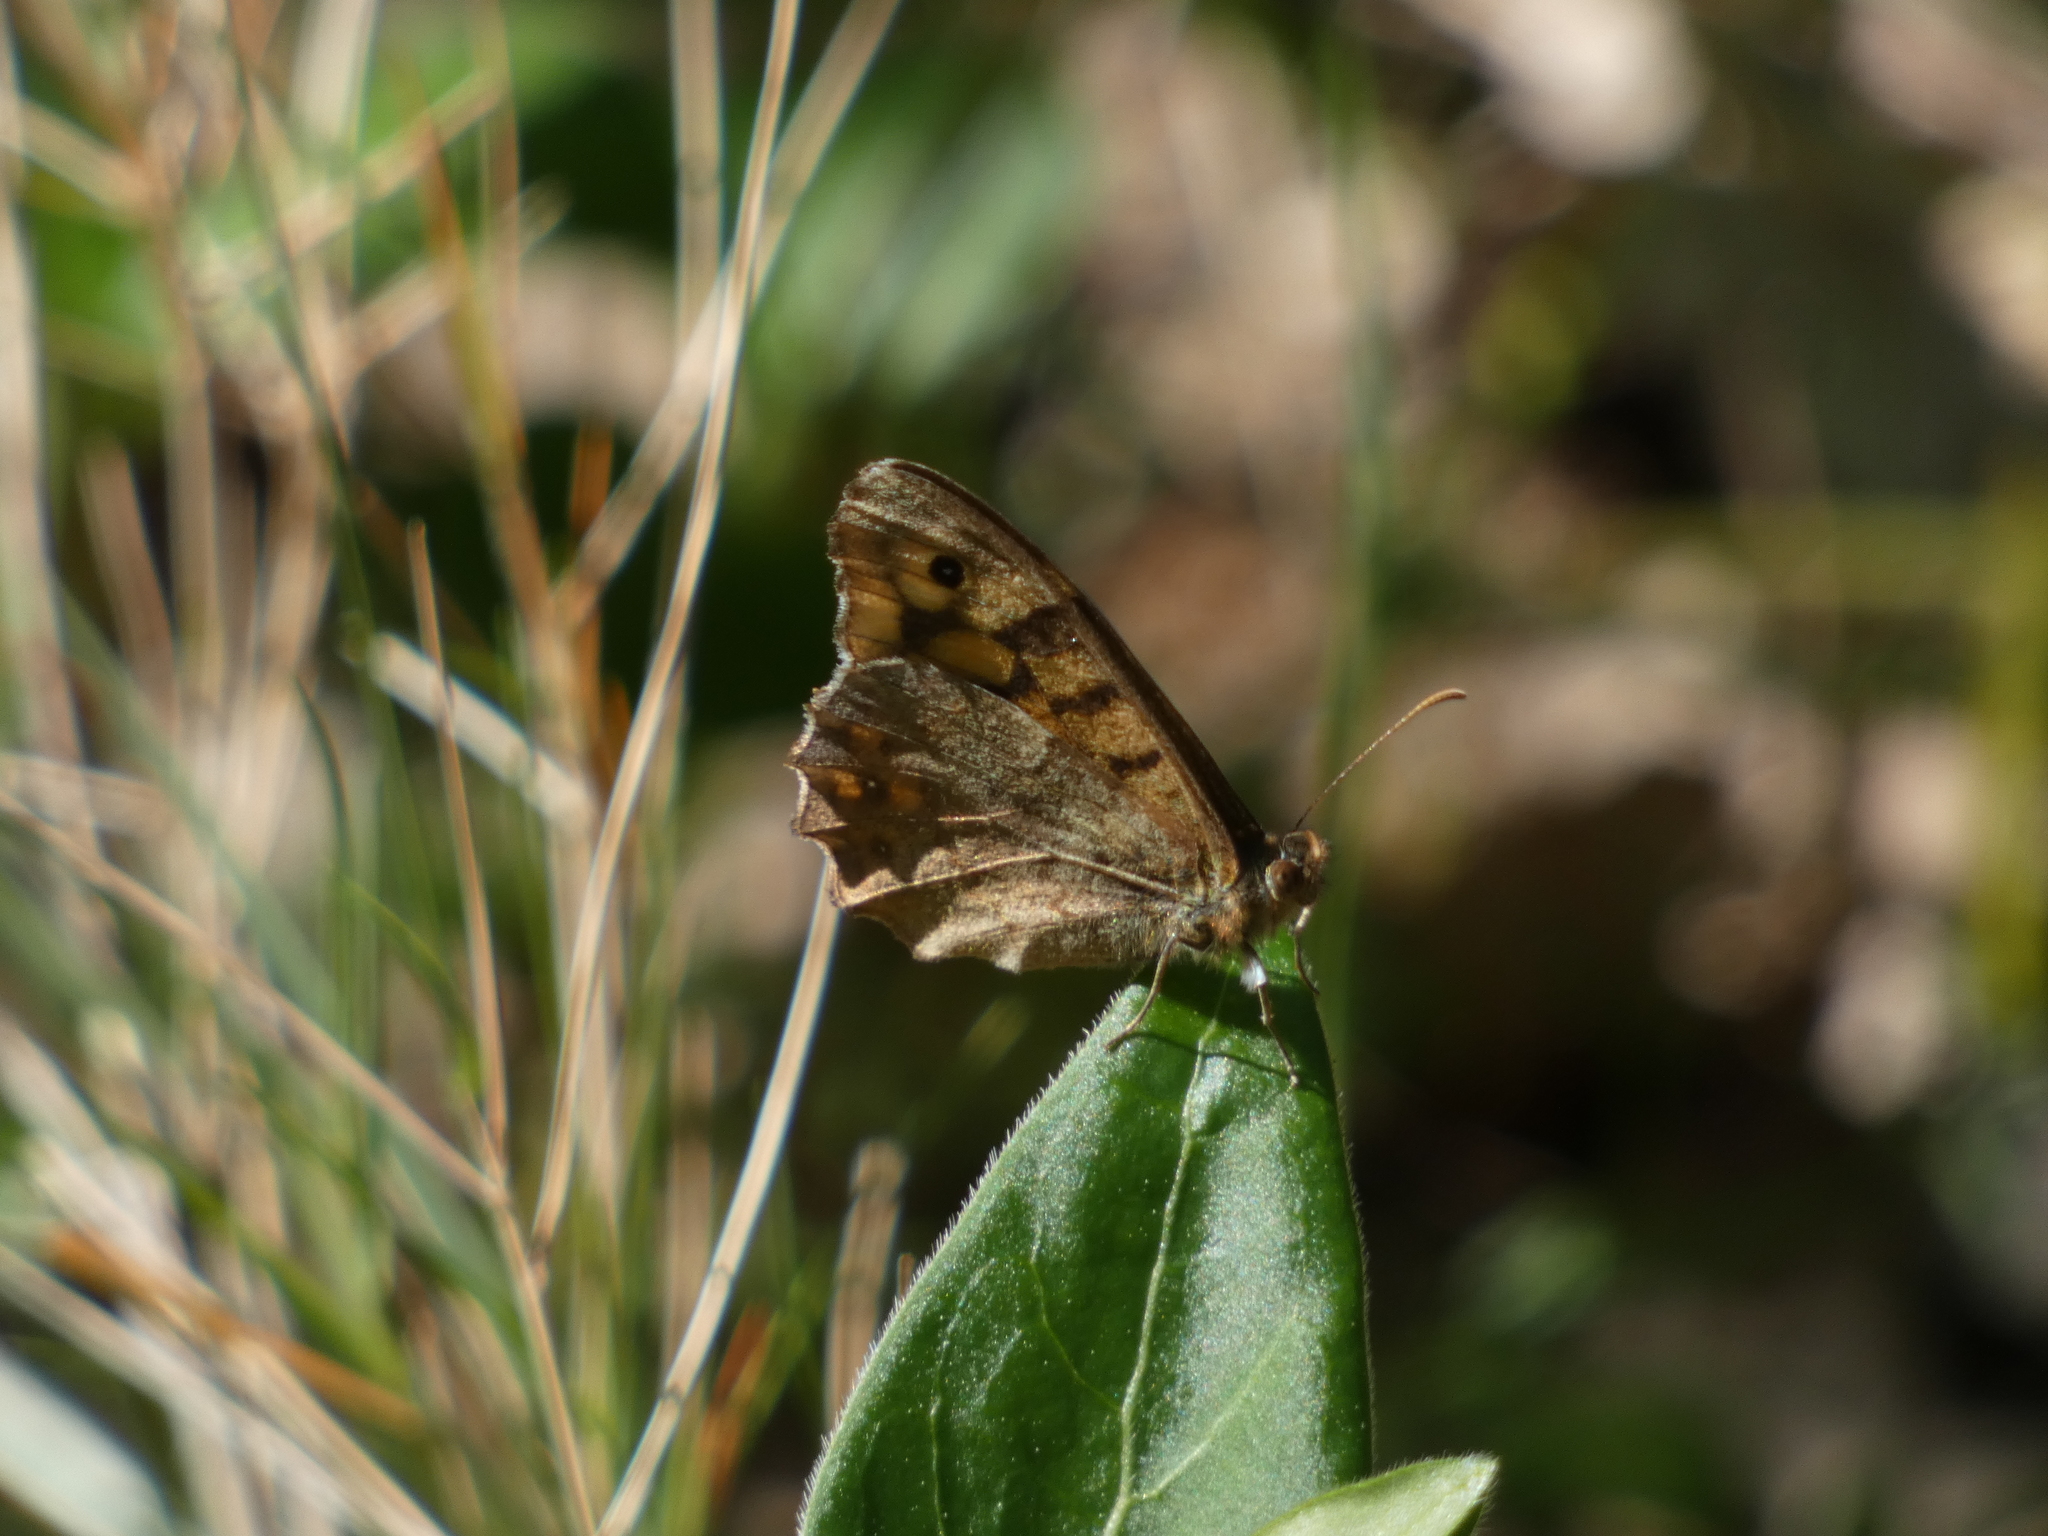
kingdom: Animalia
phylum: Arthropoda
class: Insecta
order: Lepidoptera
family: Nymphalidae
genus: Pararge
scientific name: Pararge aegeria
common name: Speckled wood
